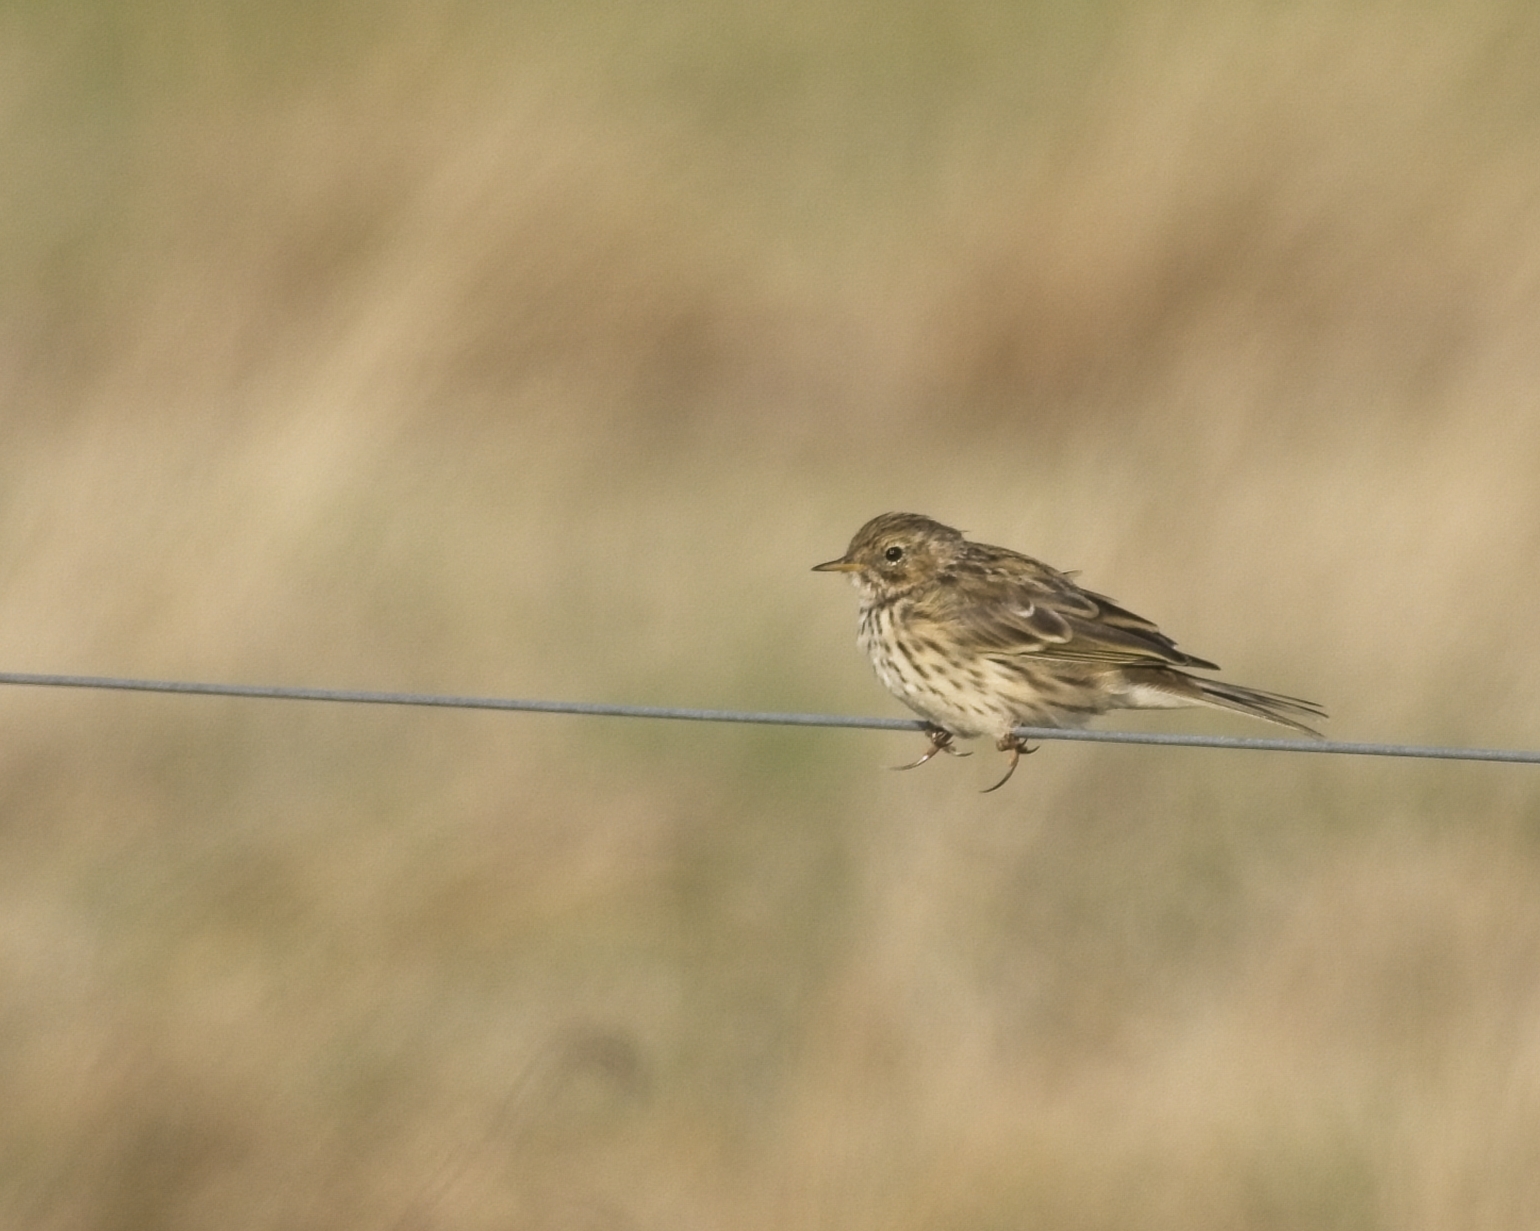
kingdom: Animalia
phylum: Chordata
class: Aves
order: Passeriformes
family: Motacillidae
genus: Anthus
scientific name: Anthus pratensis
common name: Meadow pipit
